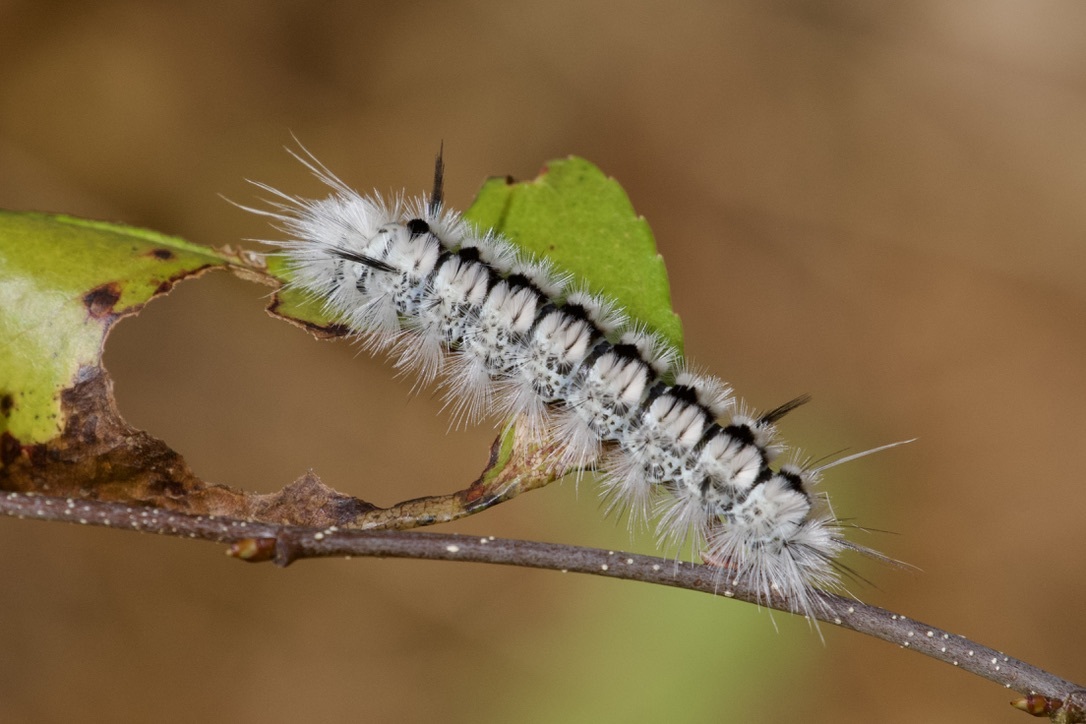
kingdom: Animalia
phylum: Arthropoda
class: Insecta
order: Lepidoptera
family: Erebidae
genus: Lophocampa
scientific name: Lophocampa caryae
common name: Hickory tussock moth
